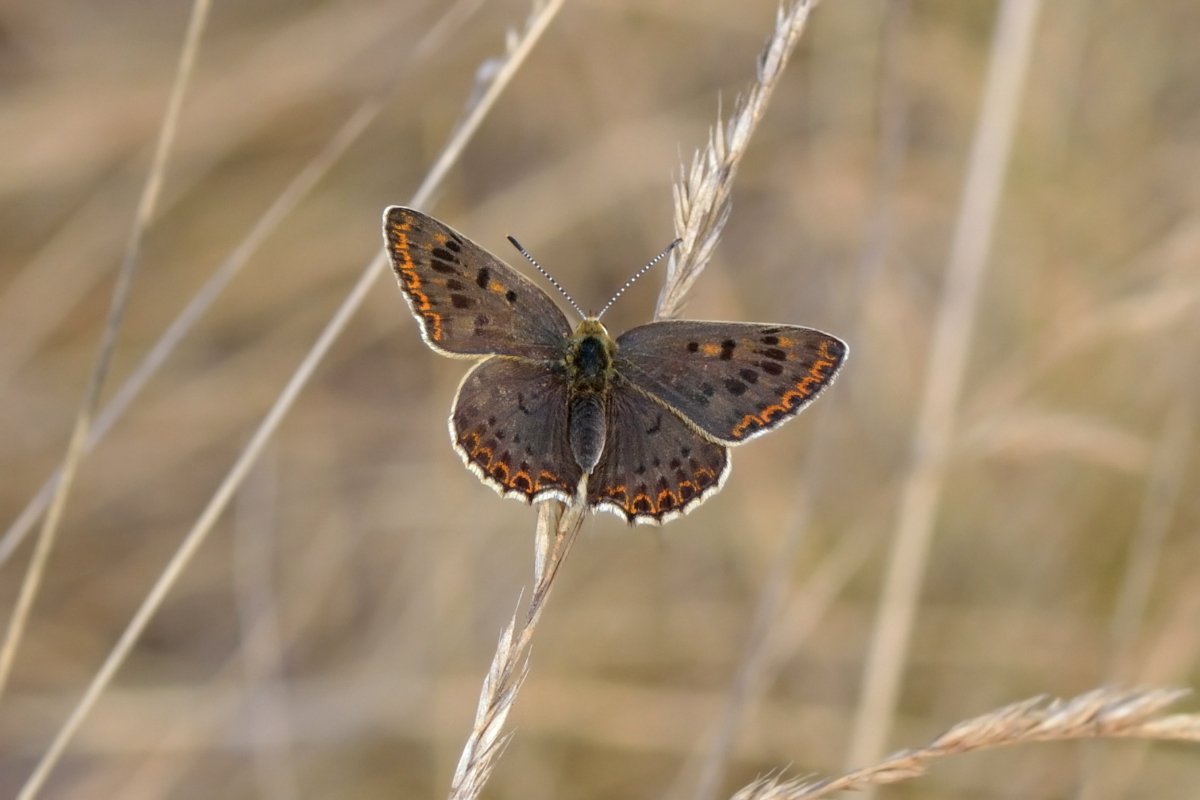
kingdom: Animalia
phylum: Arthropoda
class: Insecta
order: Lepidoptera
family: Lycaenidae
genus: Loweia
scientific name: Loweia tityrus
